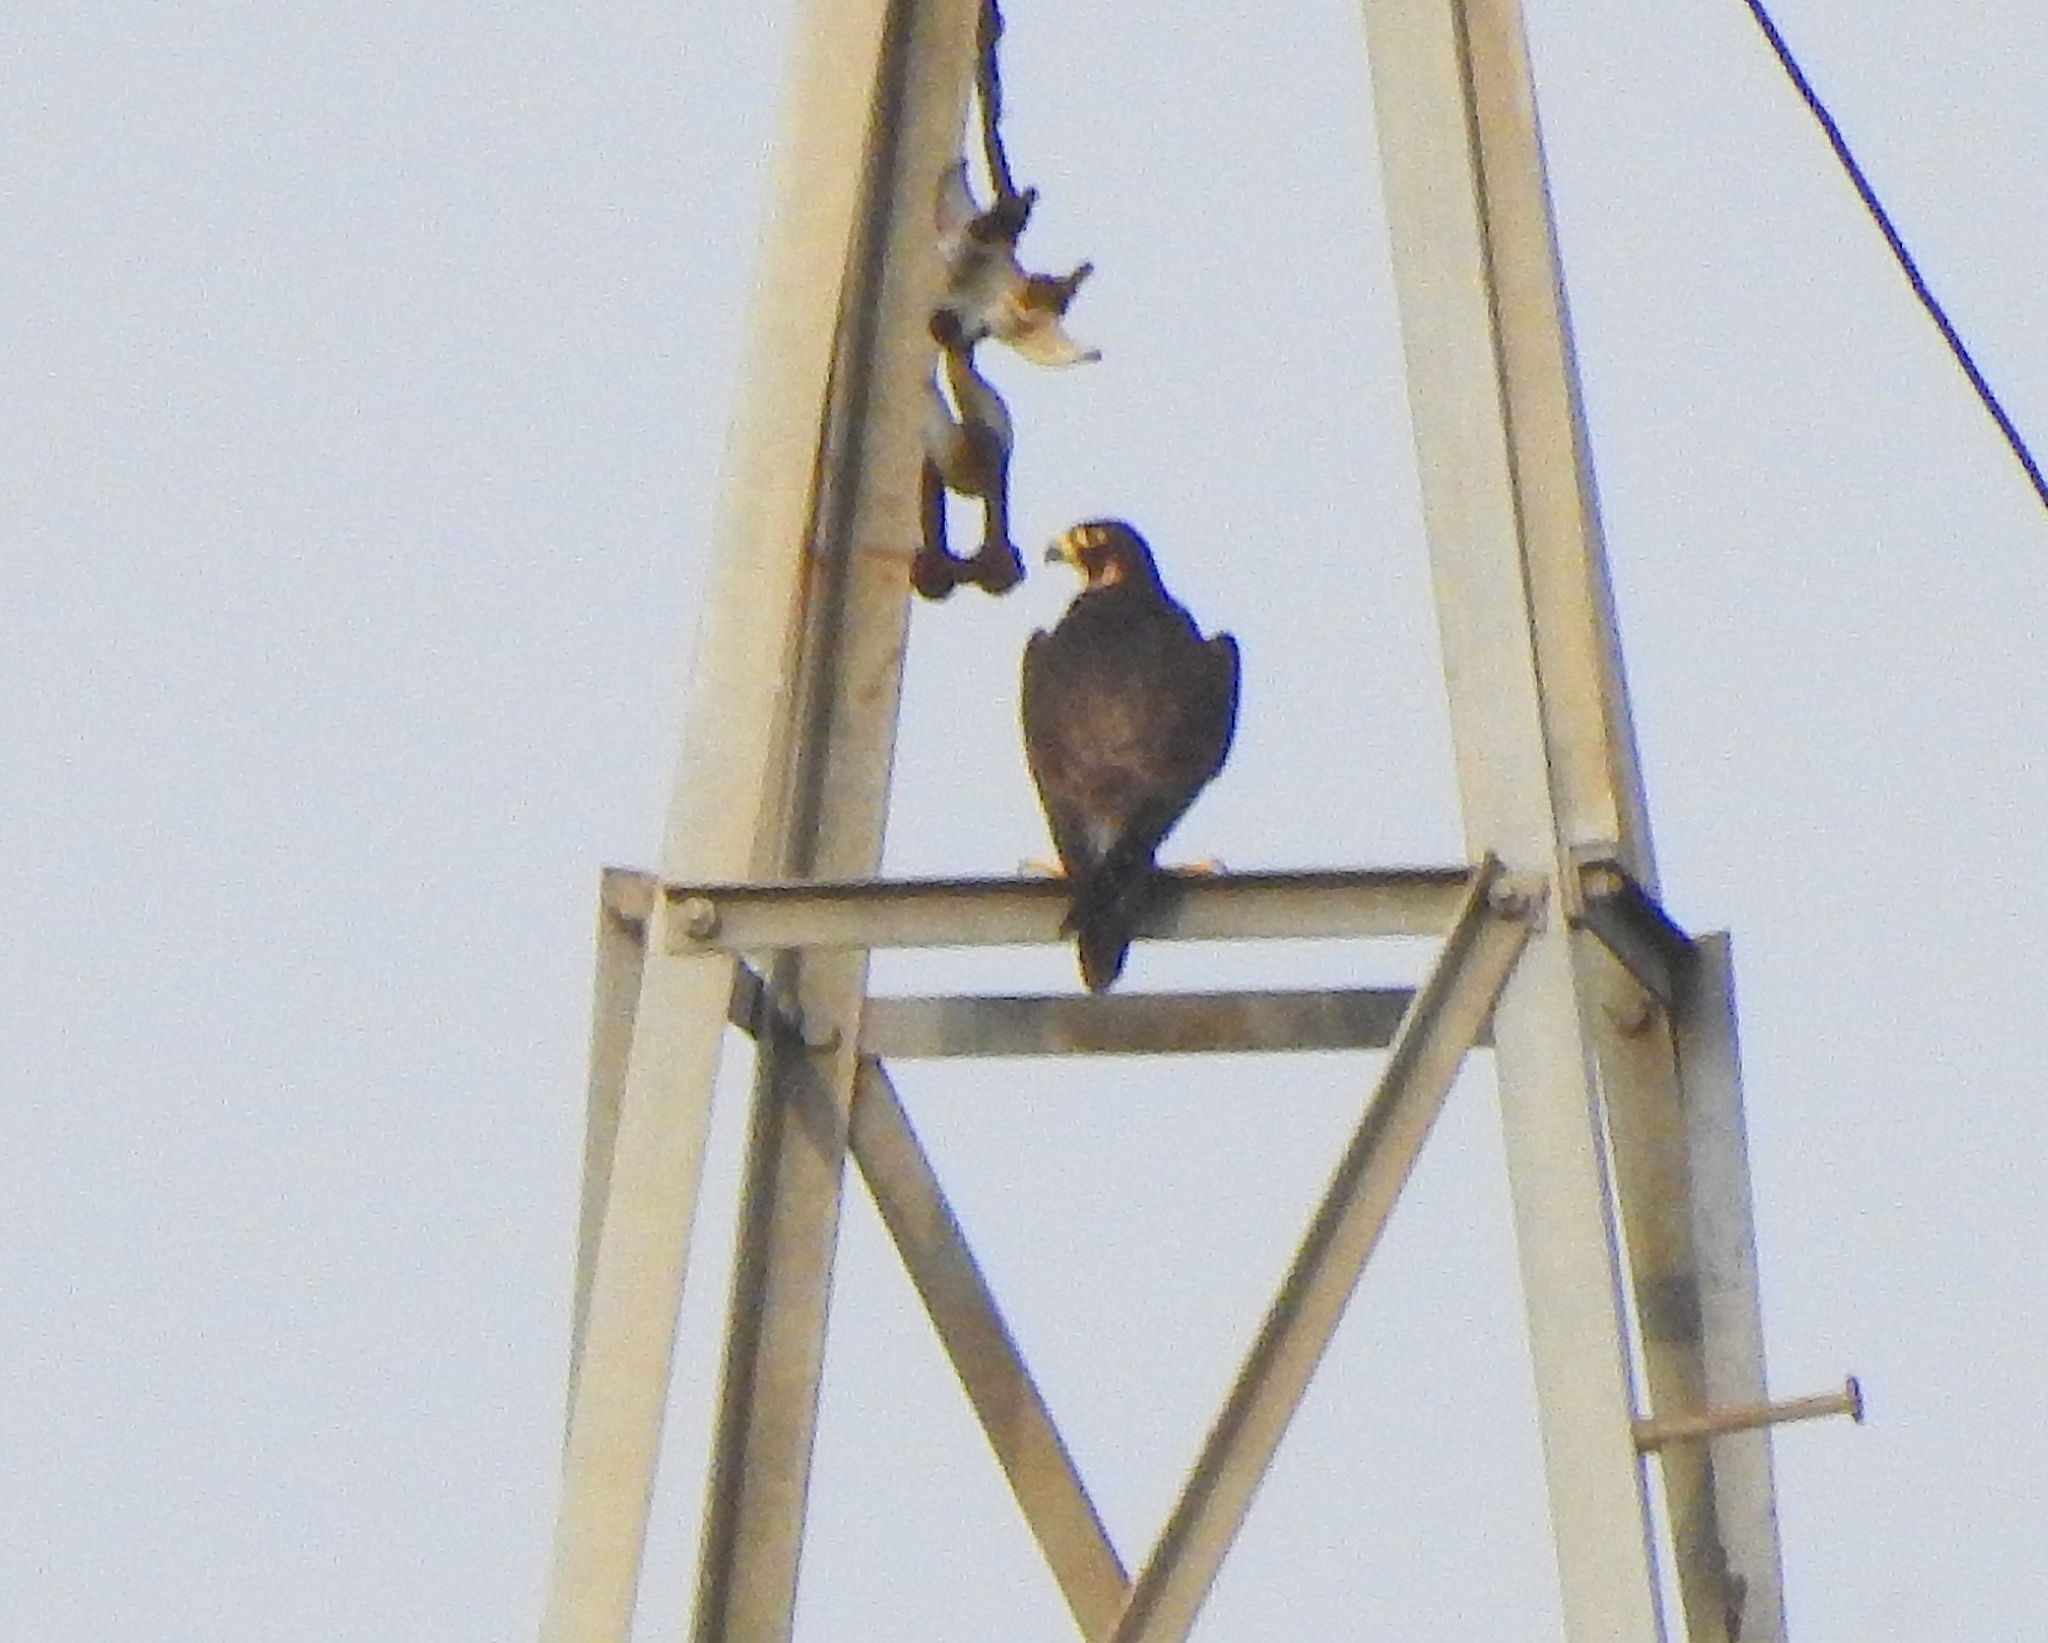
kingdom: Animalia
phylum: Chordata
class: Aves
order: Falconiformes
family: Falconidae
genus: Falco
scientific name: Falco peregrinus
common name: Peregrine falcon
